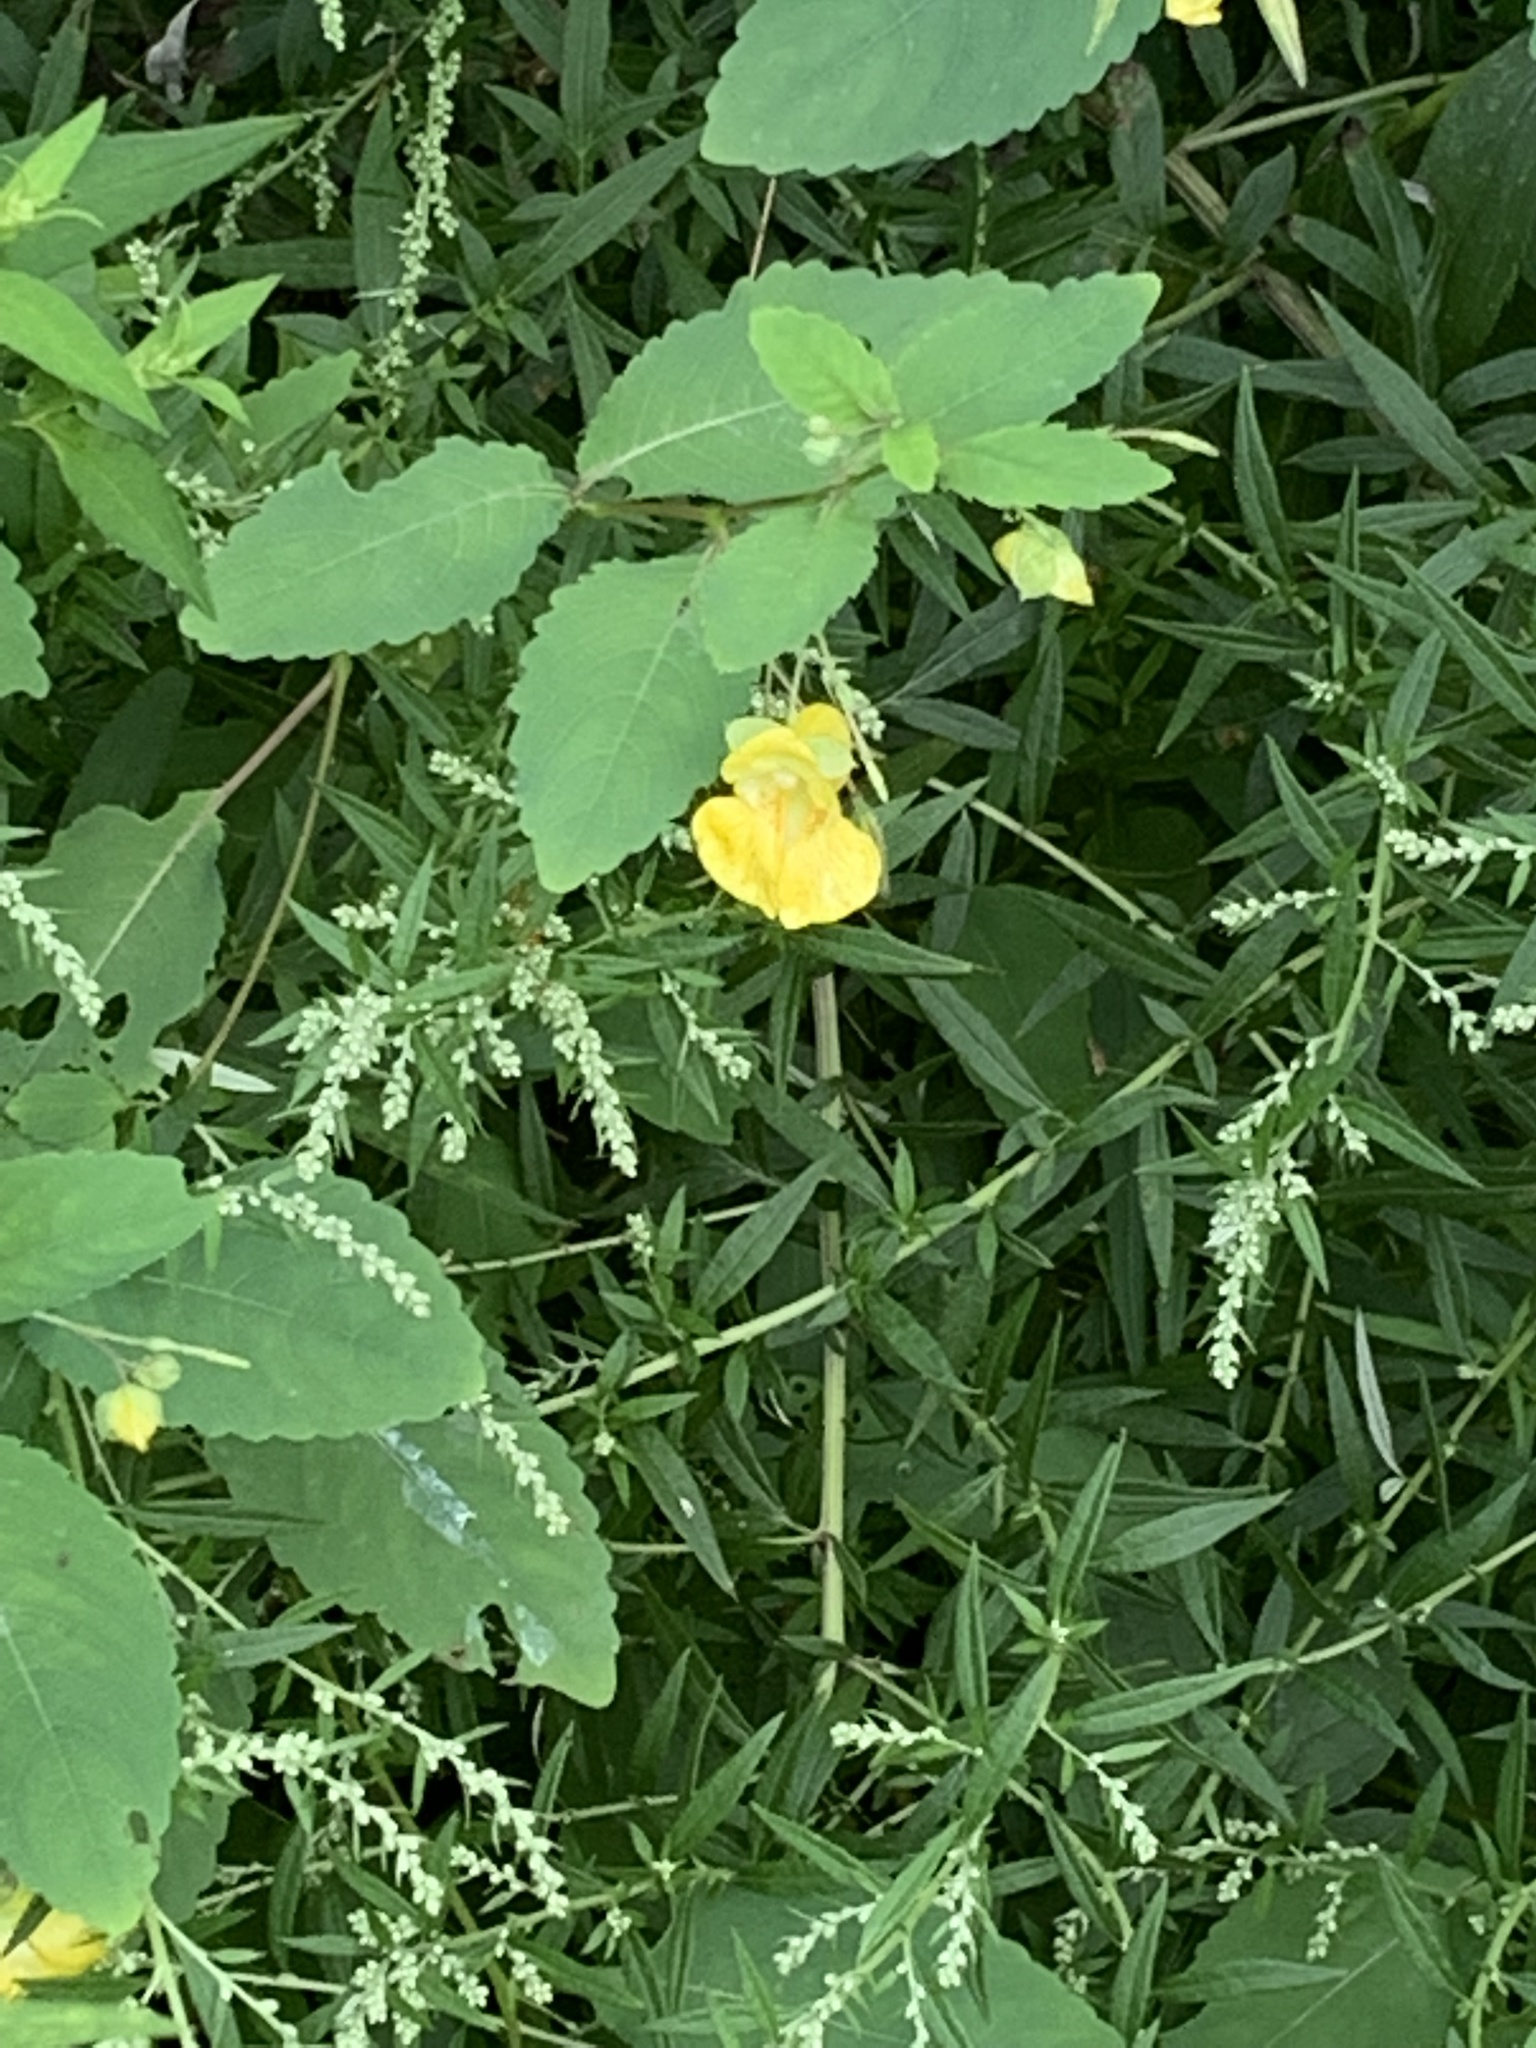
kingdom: Plantae
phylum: Tracheophyta
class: Magnoliopsida
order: Ericales
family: Balsaminaceae
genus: Impatiens
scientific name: Impatiens pallida
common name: Pale snapweed
